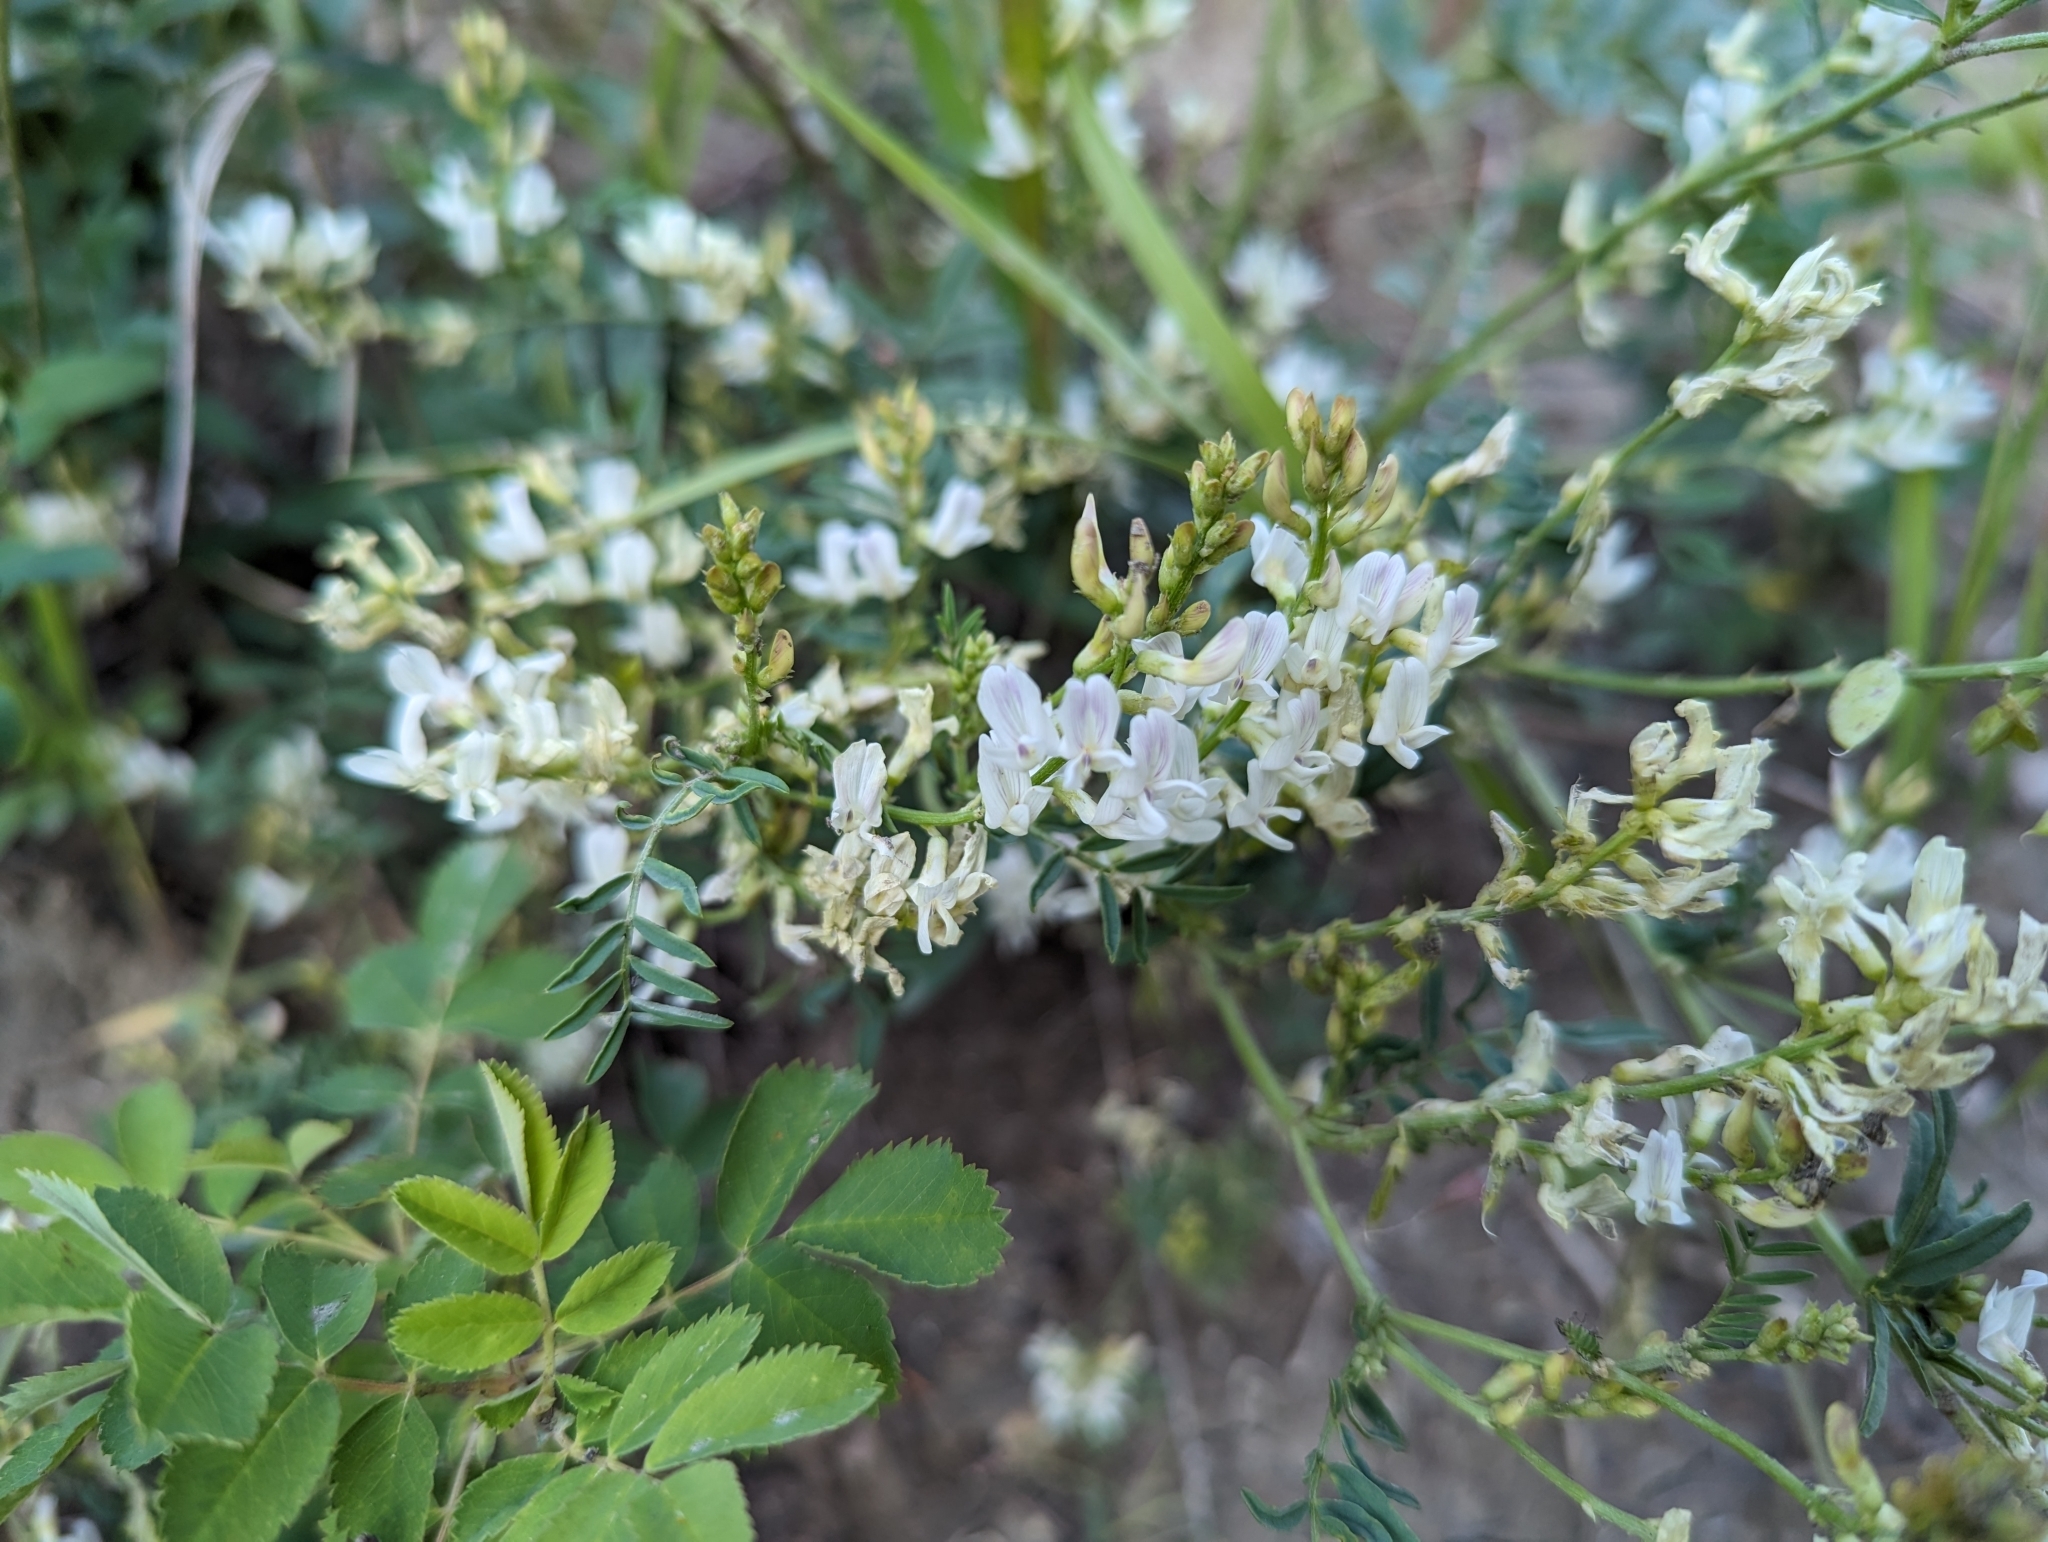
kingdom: Plantae
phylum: Tracheophyta
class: Magnoliopsida
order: Fabales
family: Fabaceae
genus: Astragalus
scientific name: Astragalus tenellus
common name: Pulse milk-vetch
